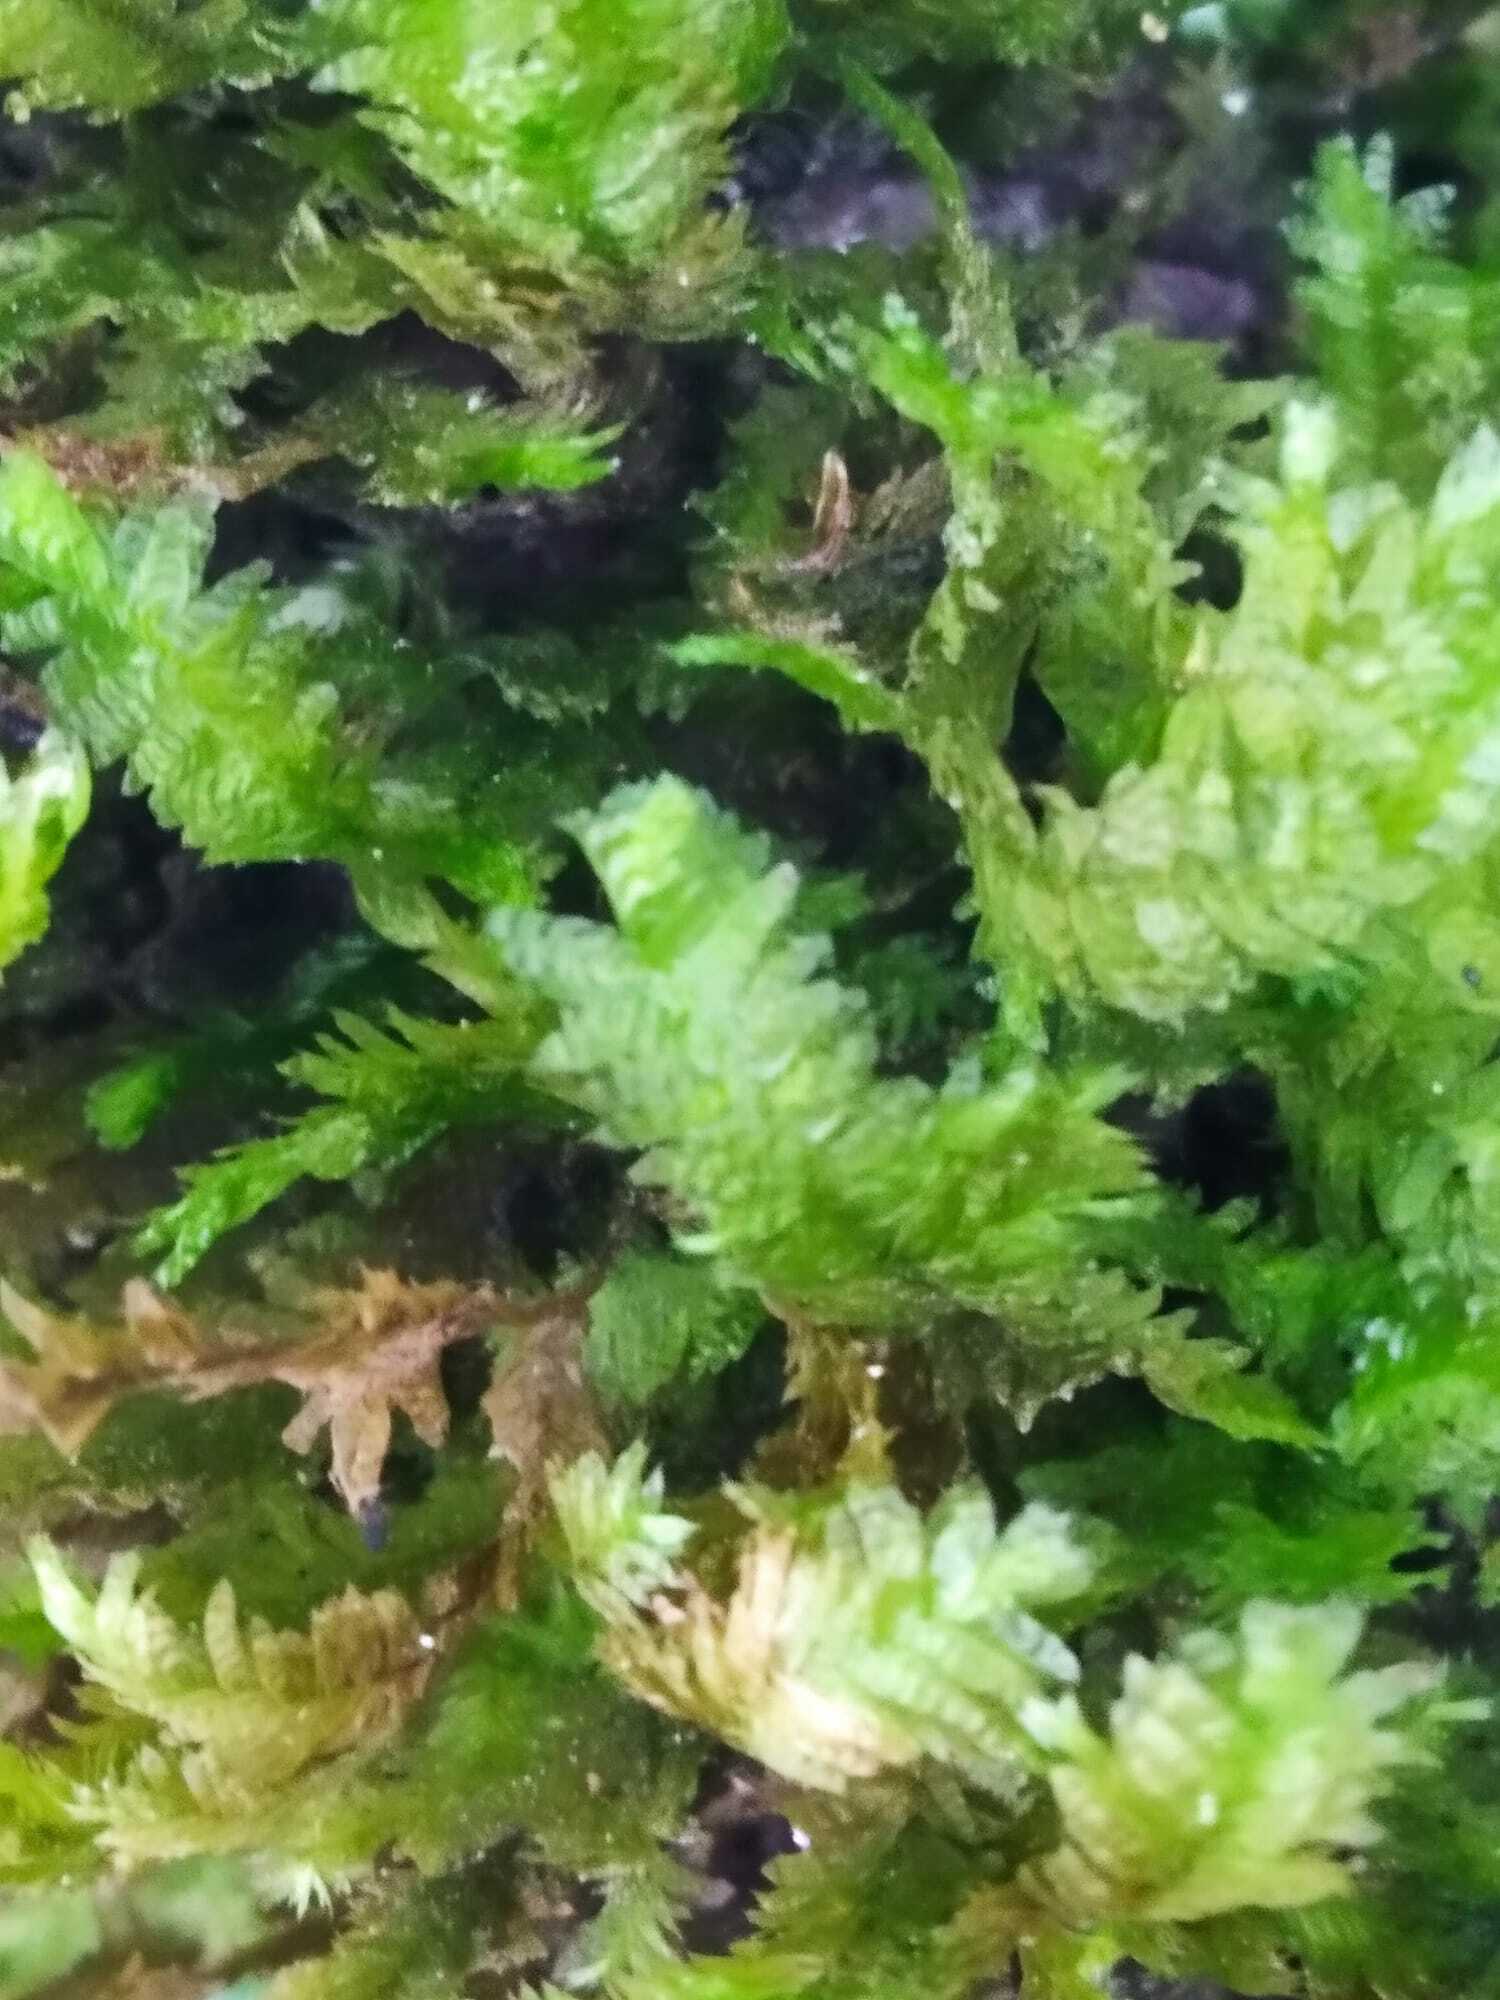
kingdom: Plantae
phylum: Bryophyta
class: Bryopsida
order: Hypnales
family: Neckeraceae
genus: Exsertotheca
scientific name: Exsertotheca crispa
